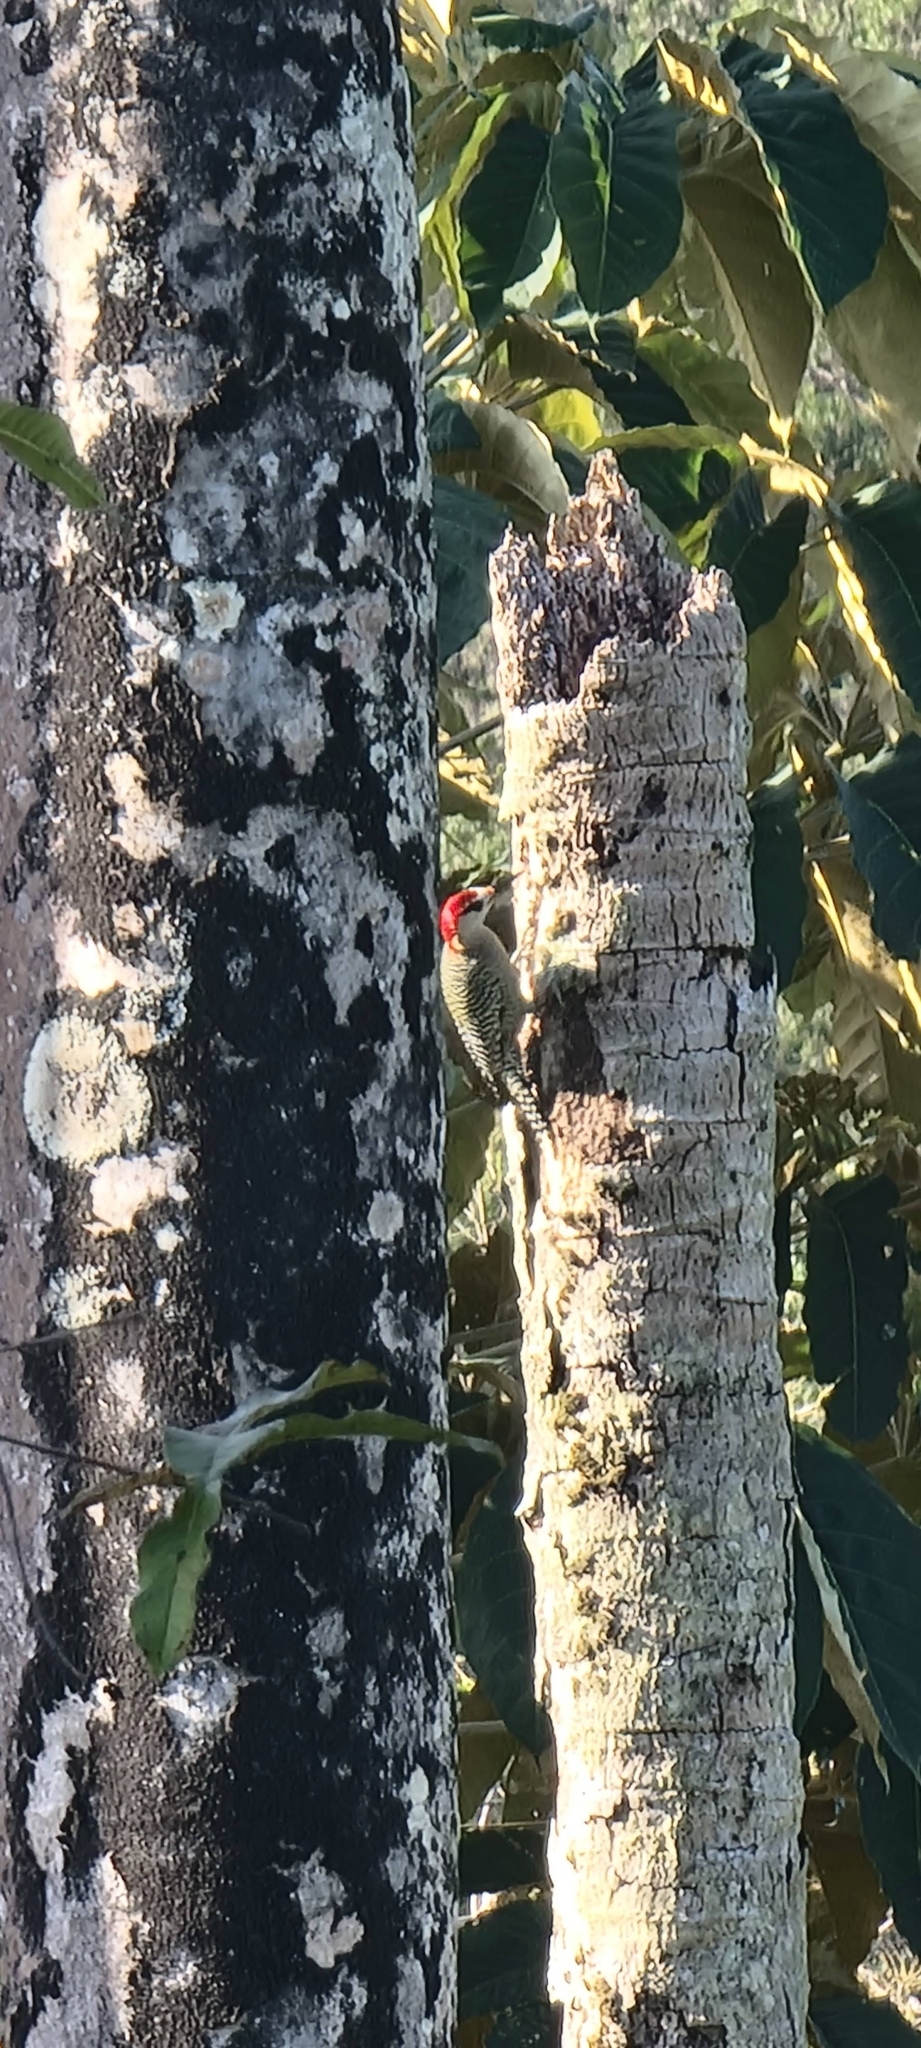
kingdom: Animalia
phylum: Chordata
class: Aves
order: Piciformes
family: Picidae
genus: Melanerpes
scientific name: Melanerpes superciliaris
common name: West indian woodpecker
